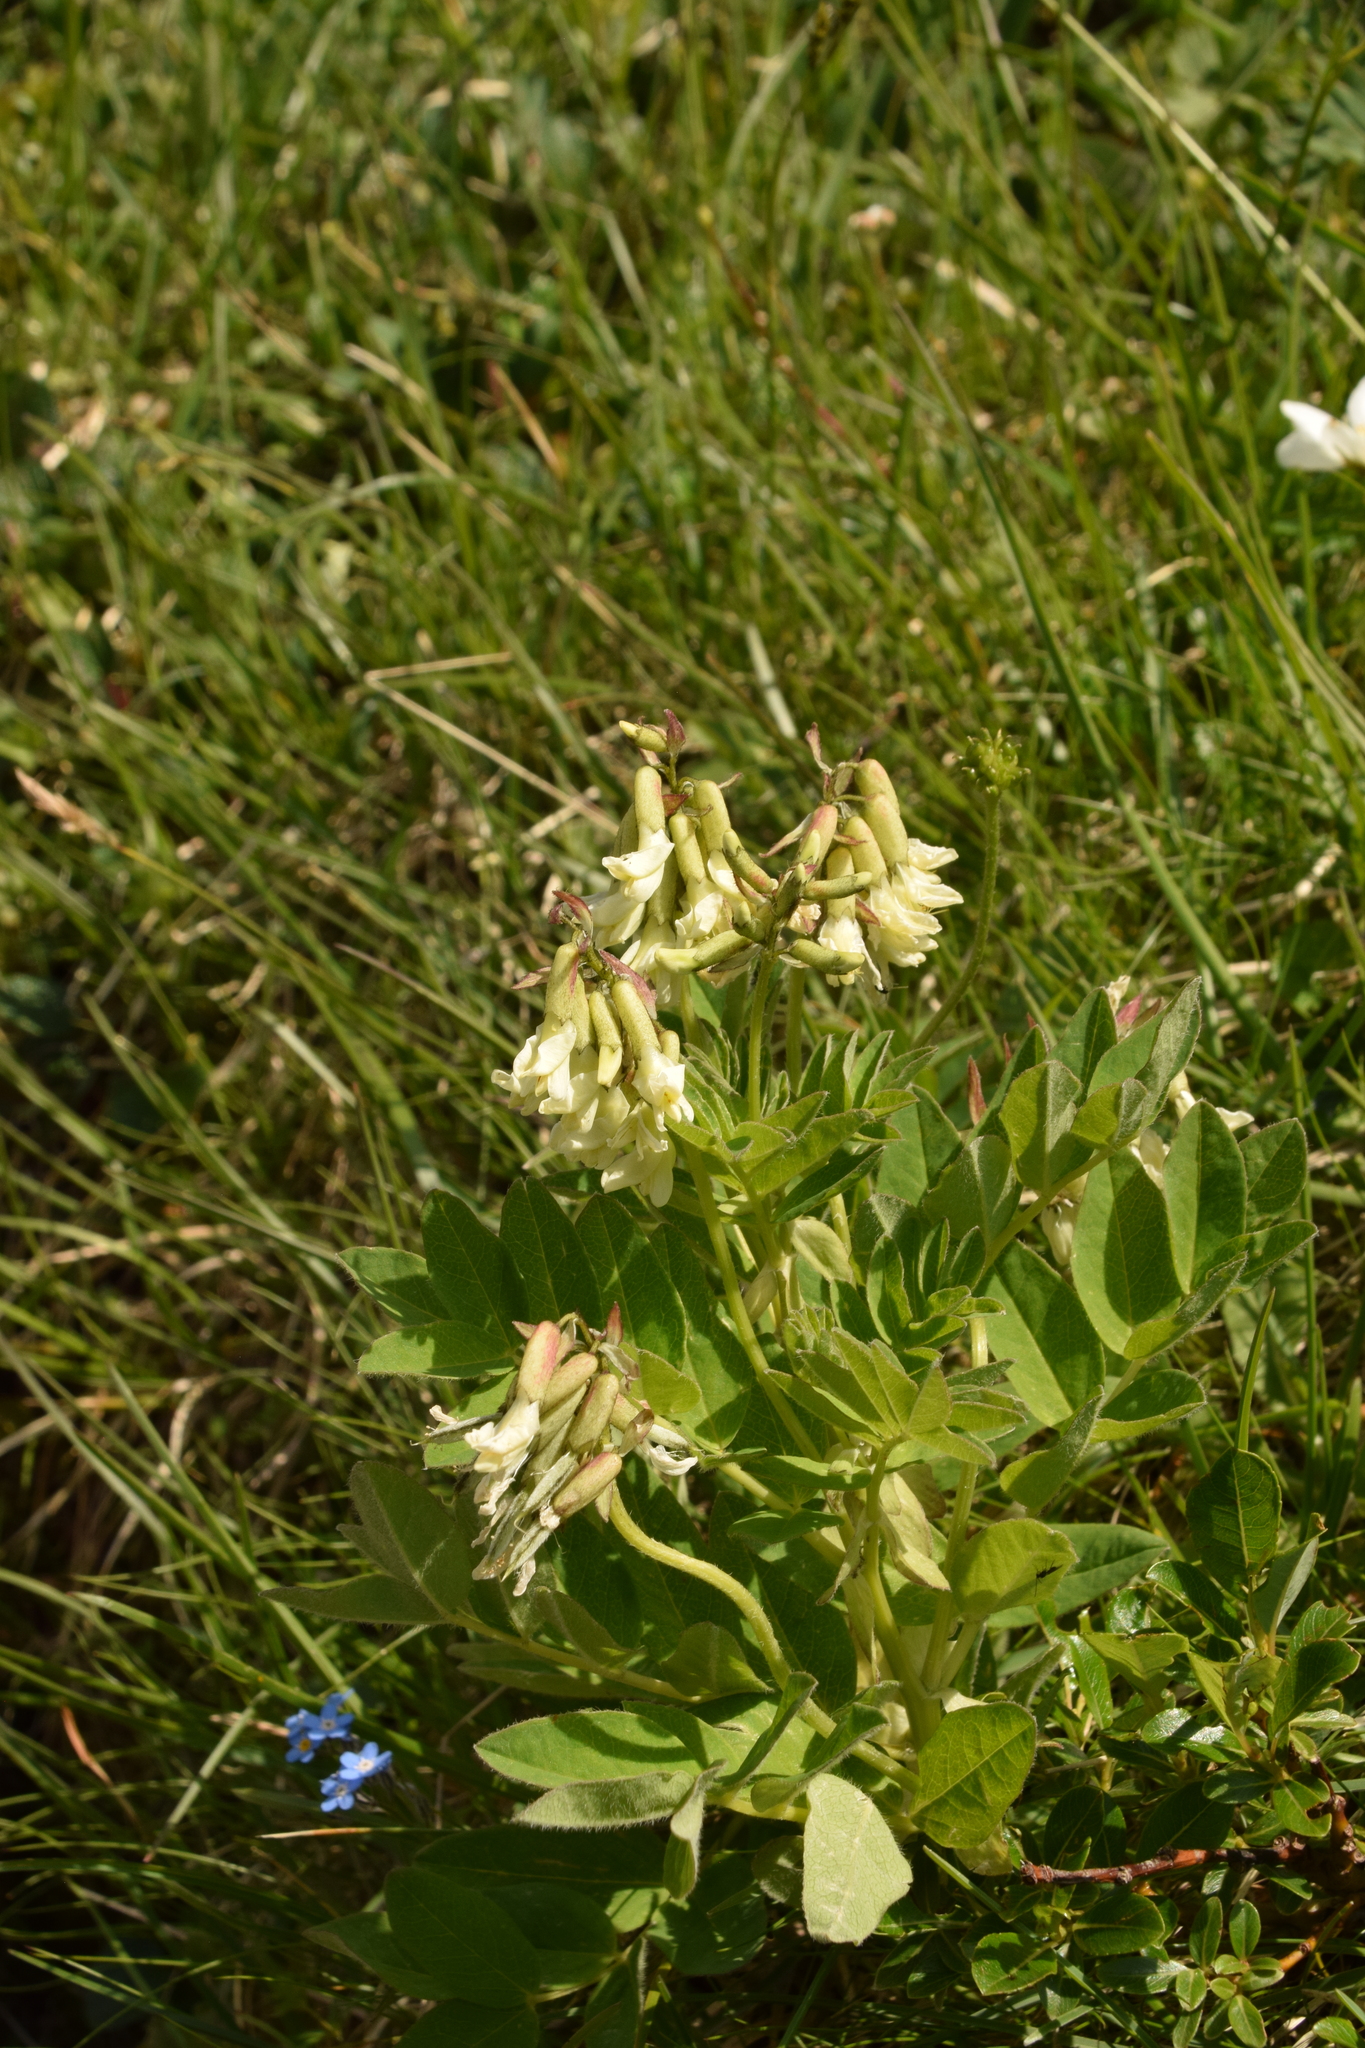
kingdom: Plantae
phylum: Tracheophyta
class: Magnoliopsida
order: Fabales
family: Fabaceae
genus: Astragalus
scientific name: Astragalus frigidus
